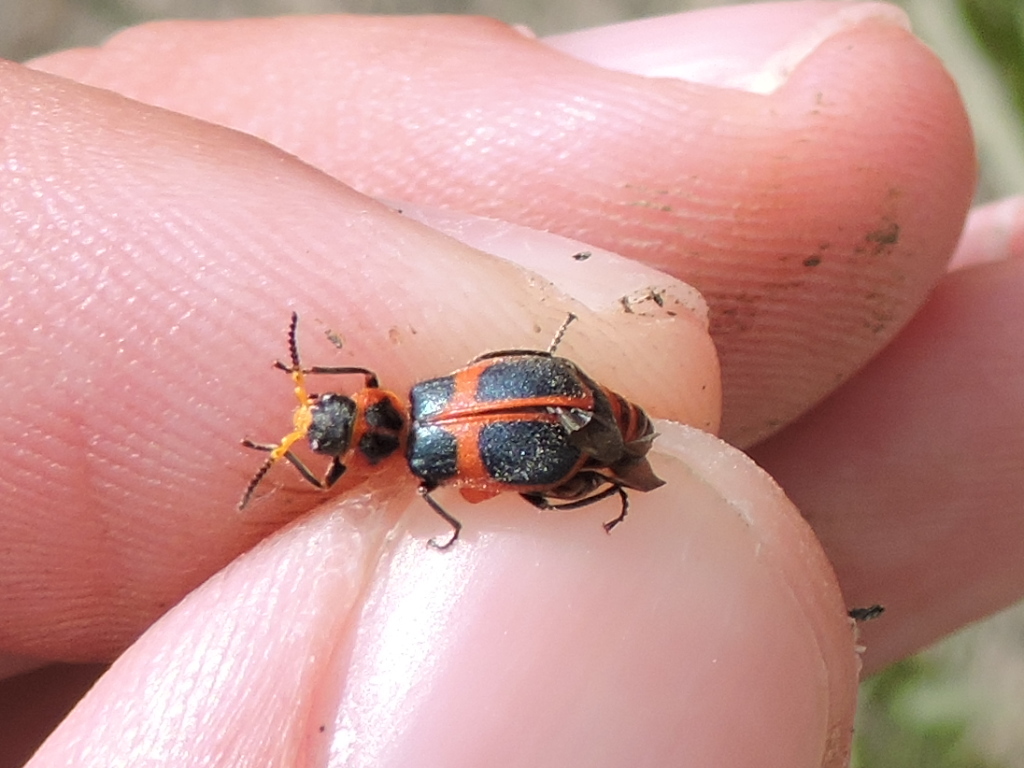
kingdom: Animalia
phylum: Arthropoda
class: Insecta
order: Coleoptera
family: Melyridae
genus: Collops
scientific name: Collops
